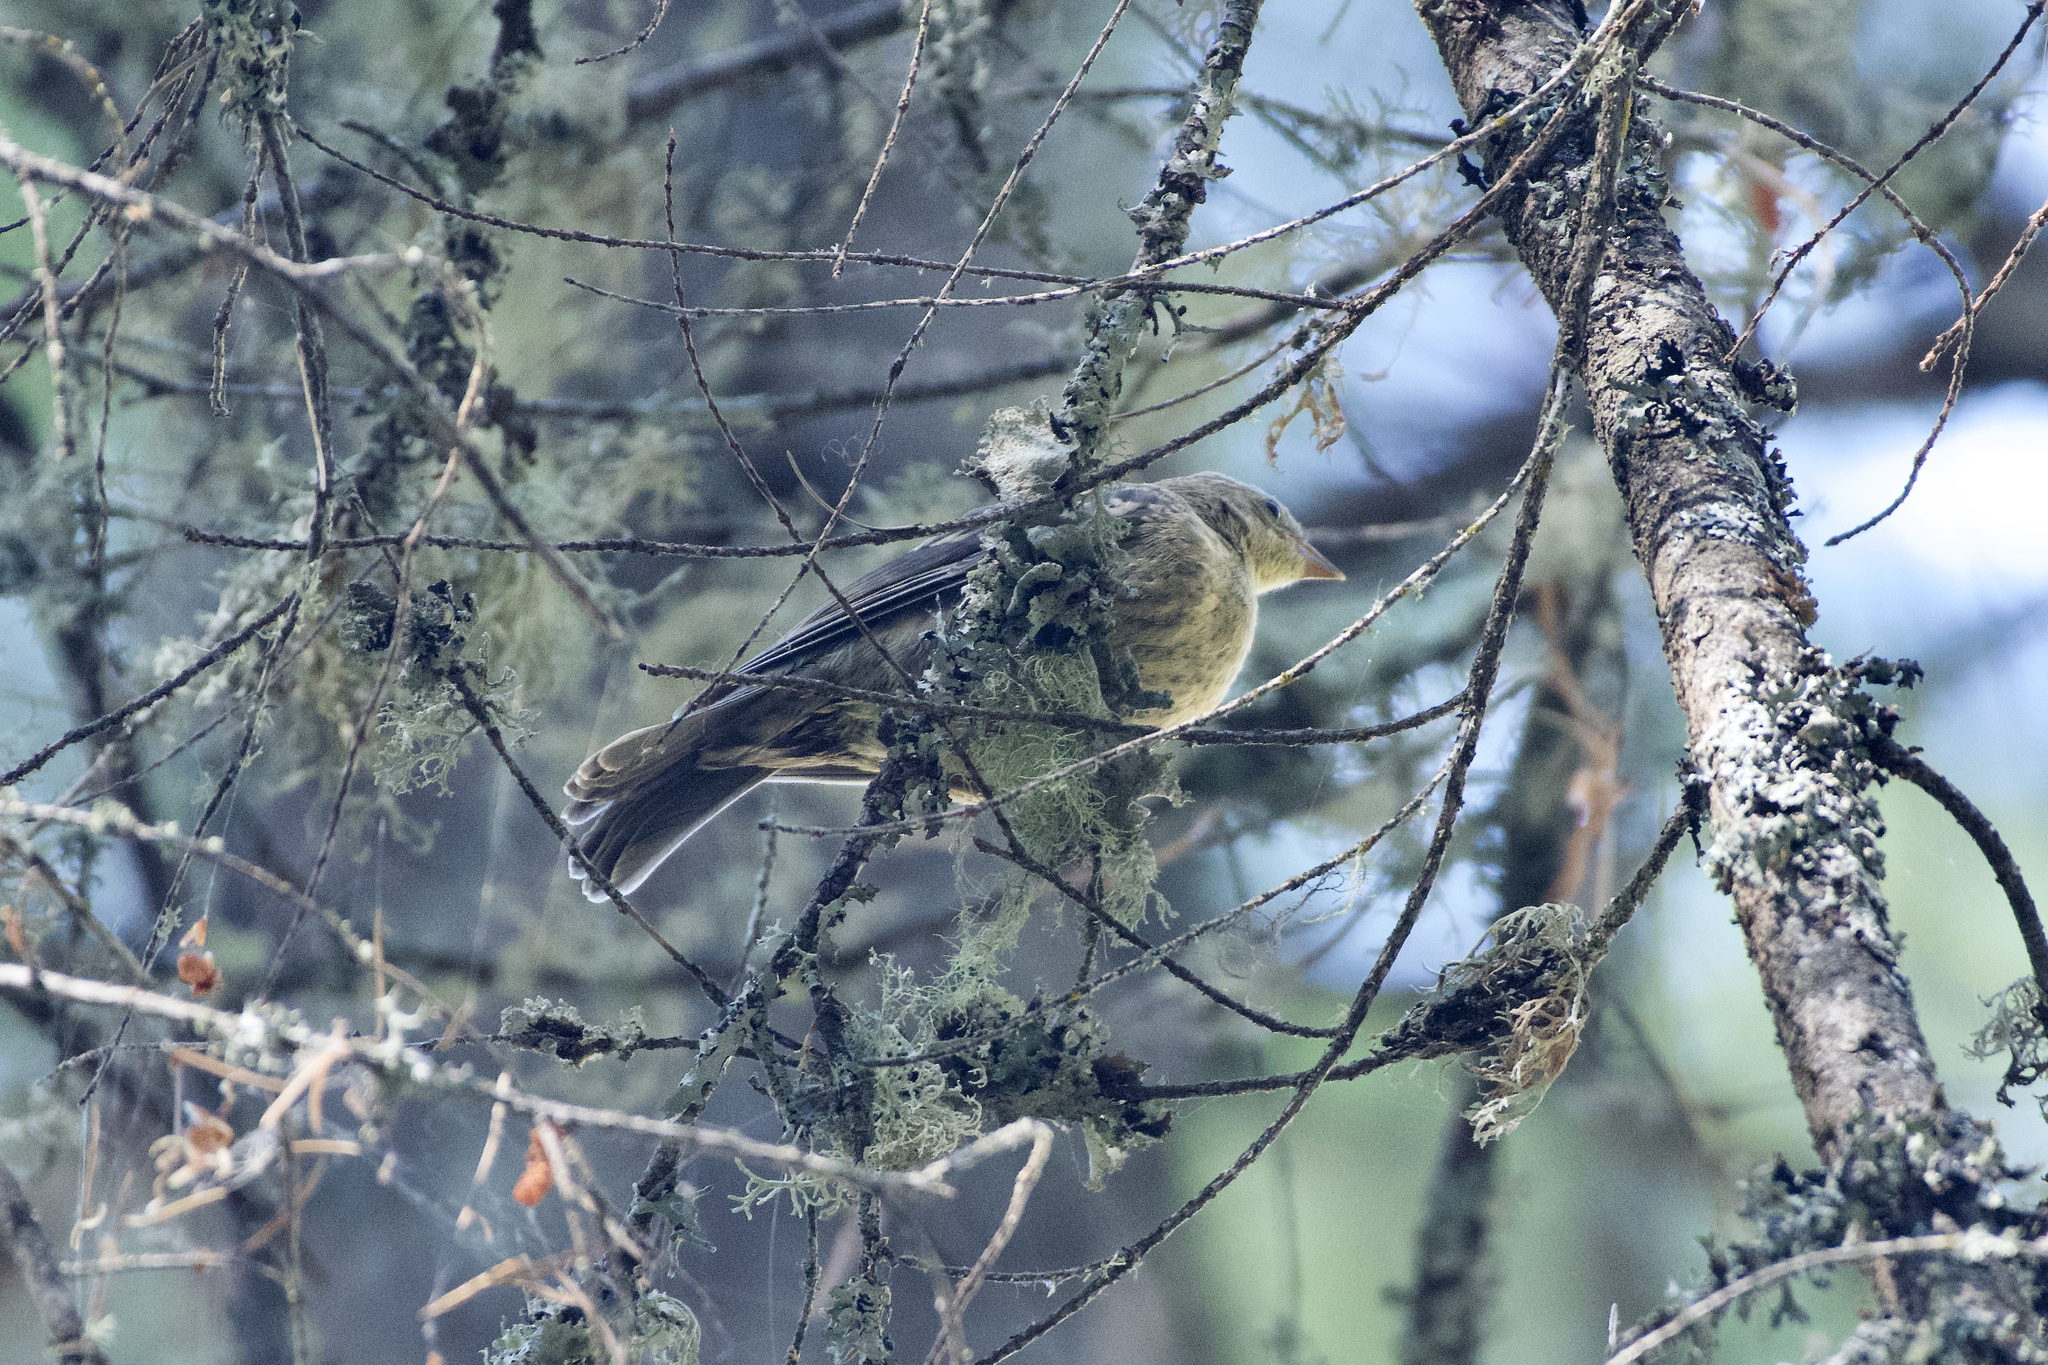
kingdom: Animalia
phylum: Chordata
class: Aves
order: Passeriformes
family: Parulidae
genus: Setophaga
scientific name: Setophaga auduboni
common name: Audubon's warbler
